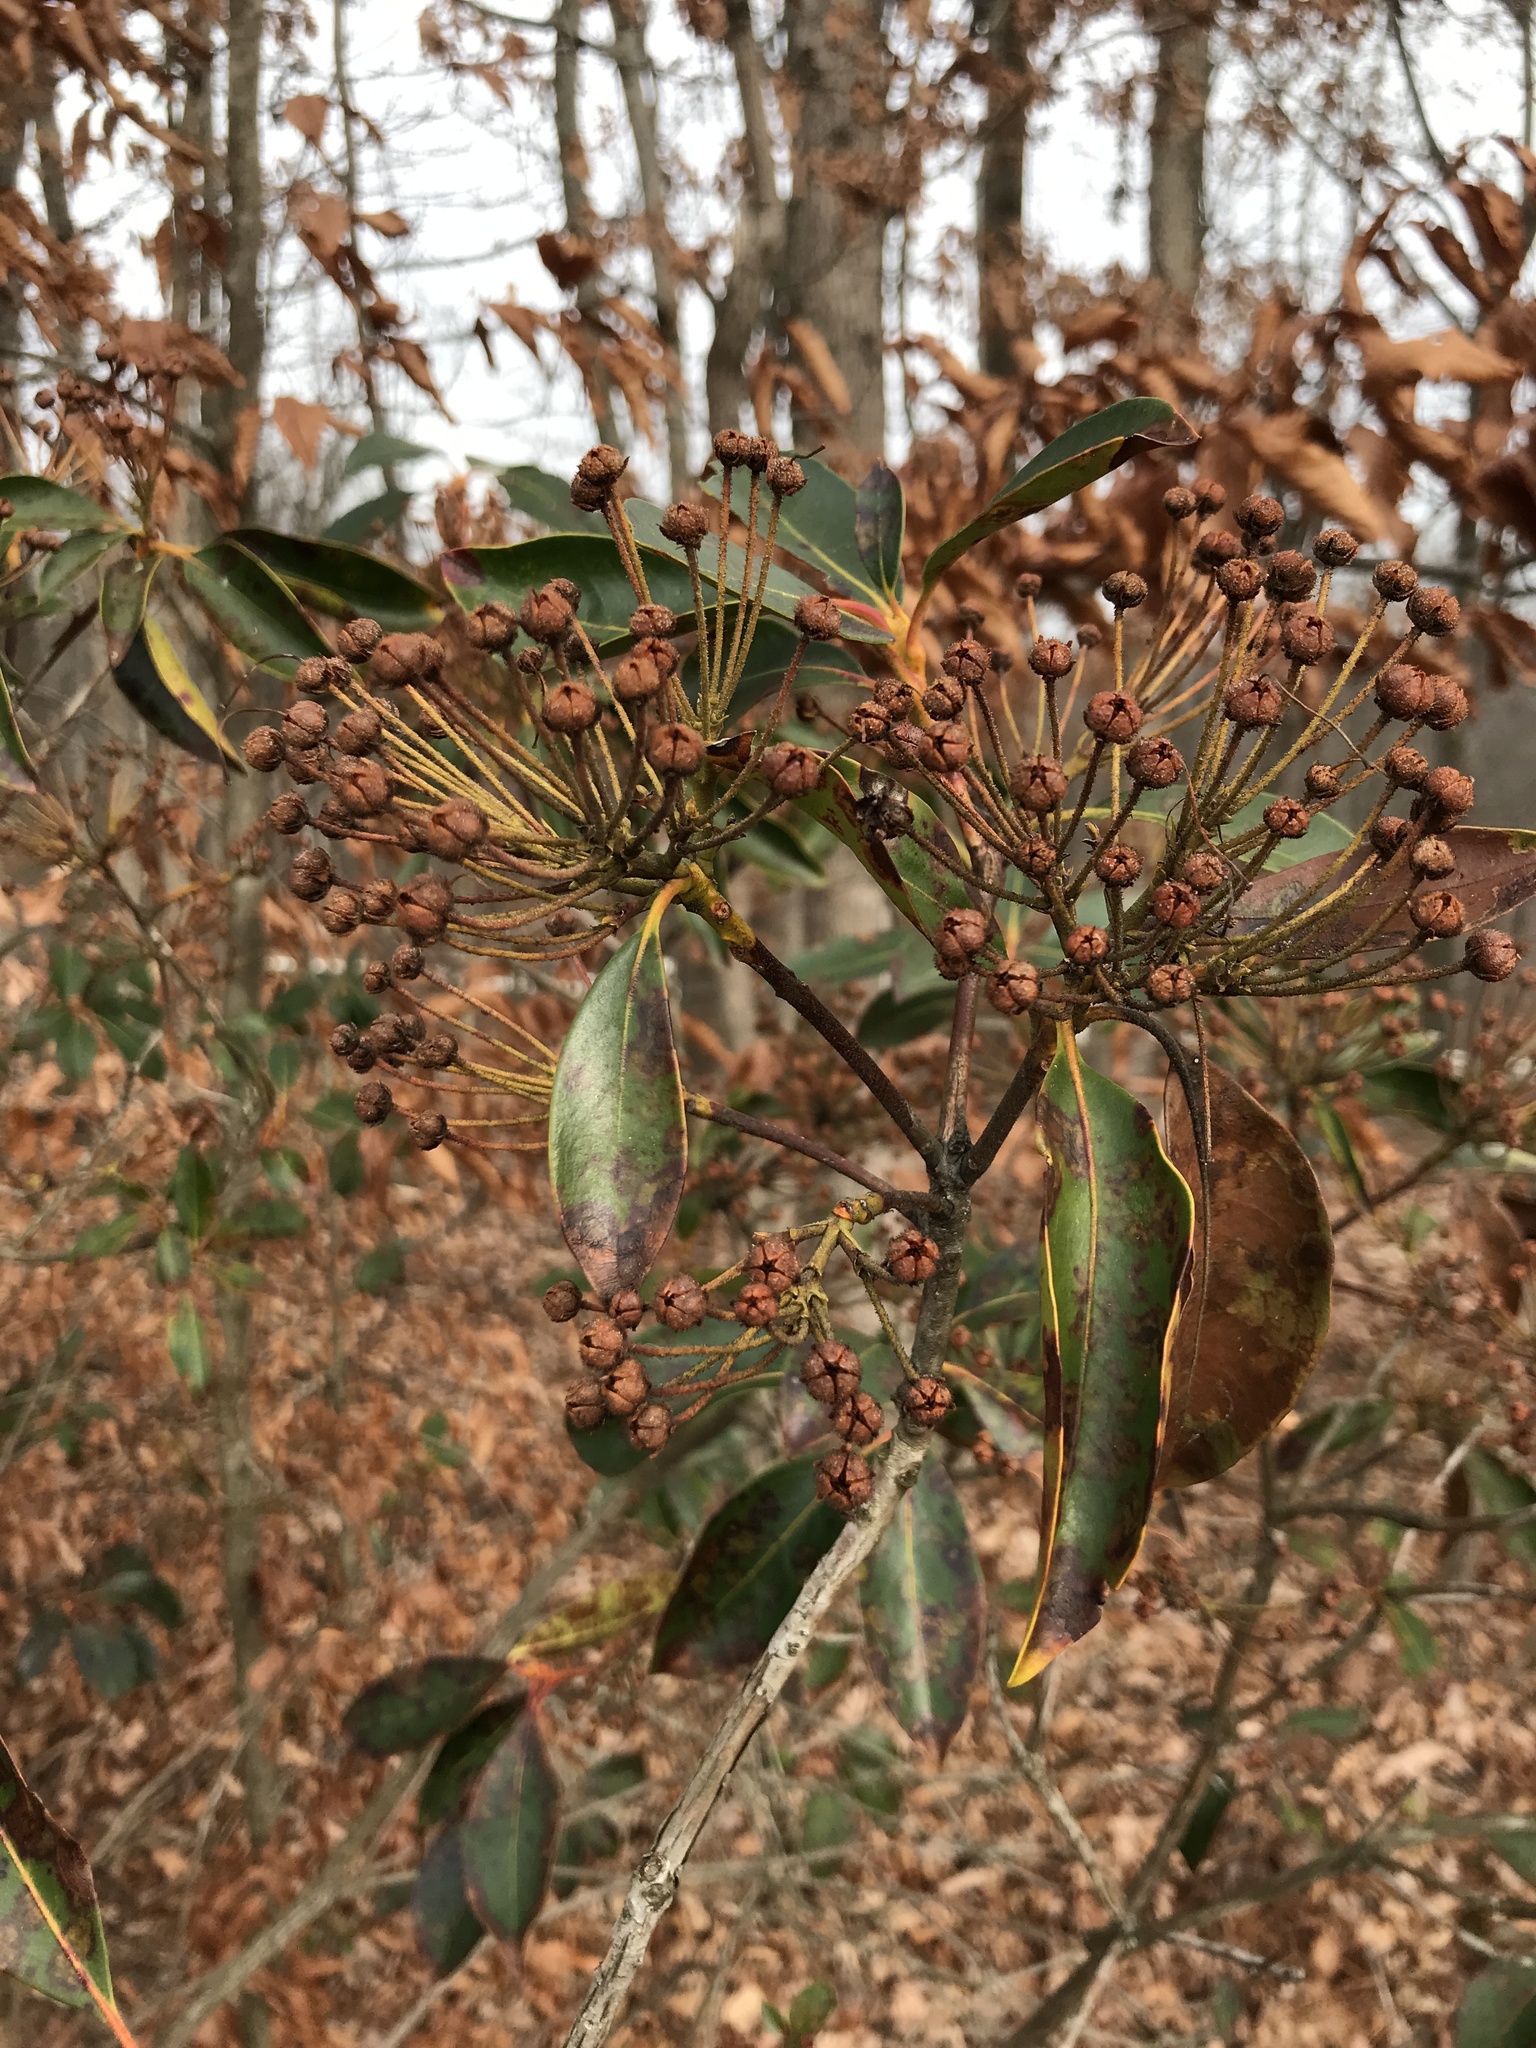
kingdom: Plantae
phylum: Tracheophyta
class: Magnoliopsida
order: Ericales
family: Ericaceae
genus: Kalmia
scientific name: Kalmia latifolia
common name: Mountain-laurel
